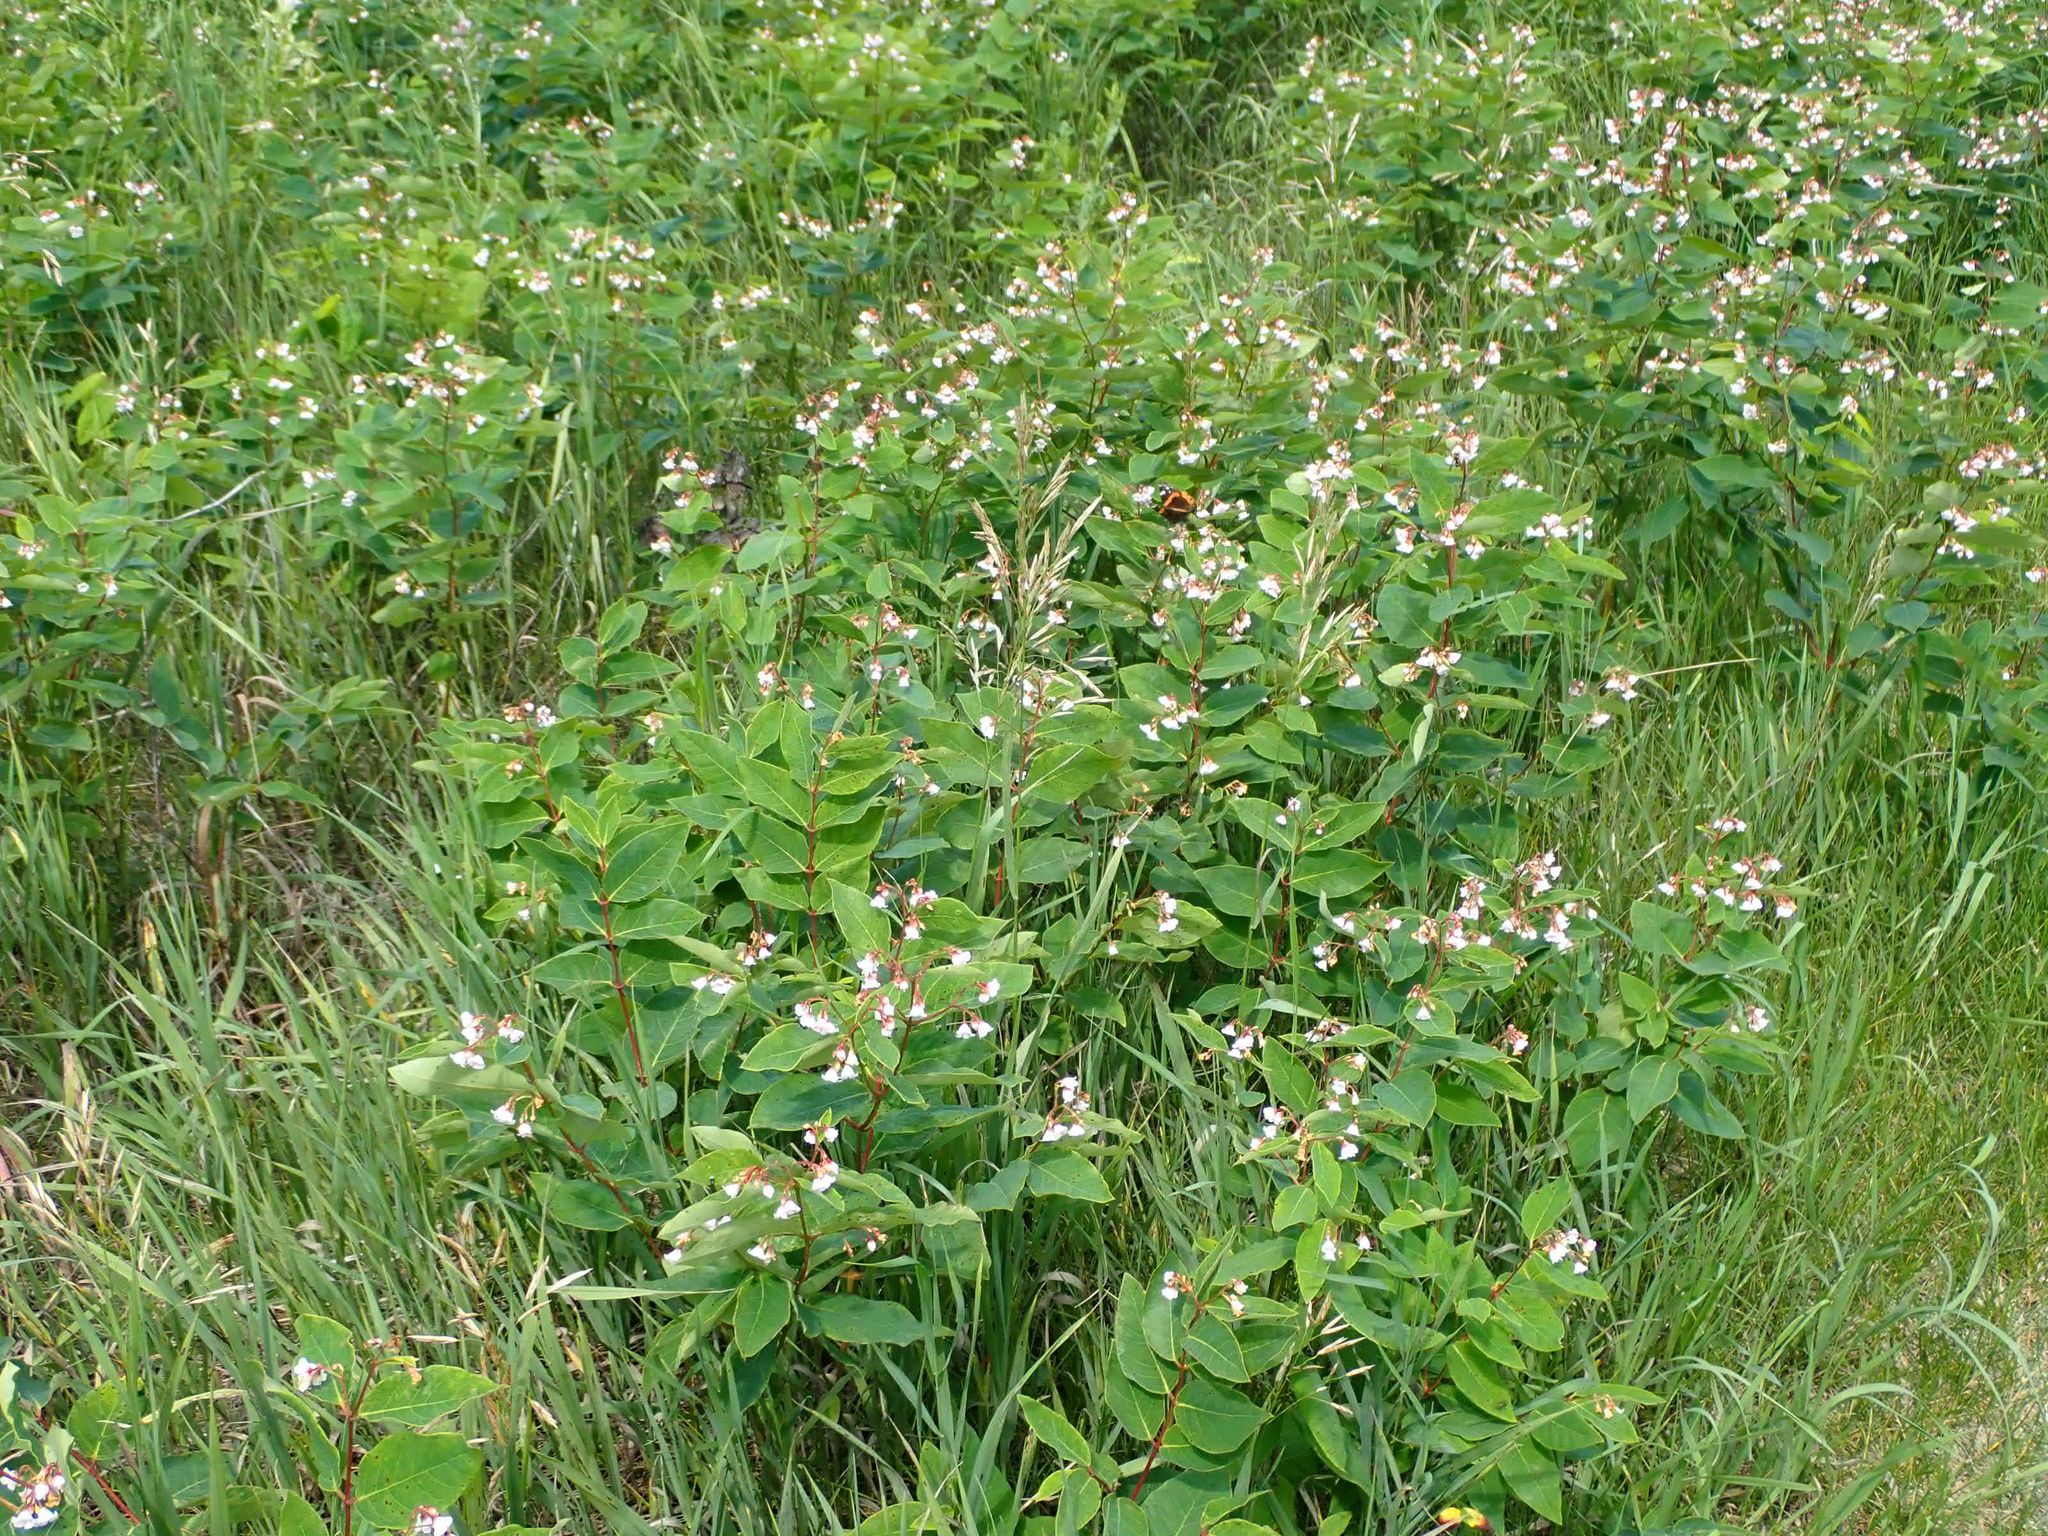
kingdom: Plantae
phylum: Tracheophyta
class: Magnoliopsida
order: Gentianales
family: Apocynaceae
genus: Apocynum
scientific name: Apocynum androsaemifolium
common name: Spreading dogbane
